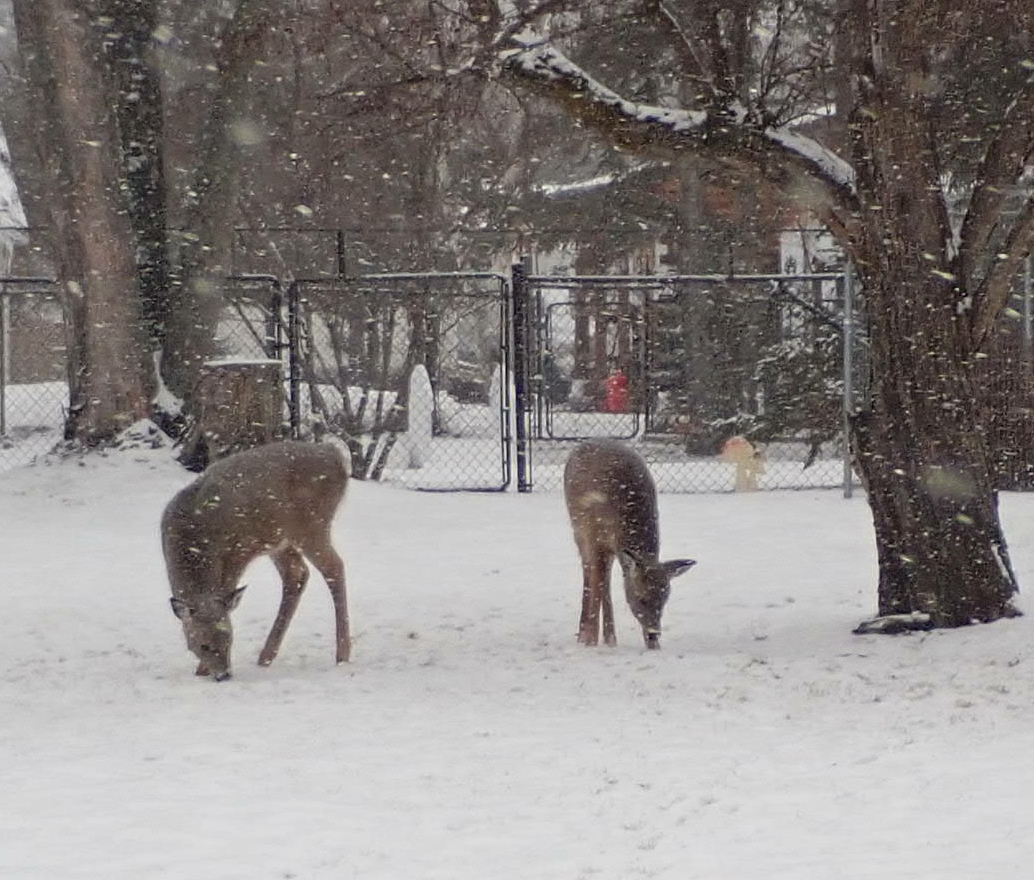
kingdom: Animalia
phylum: Chordata
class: Mammalia
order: Artiodactyla
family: Cervidae
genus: Odocoileus
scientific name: Odocoileus virginianus
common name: White-tailed deer
